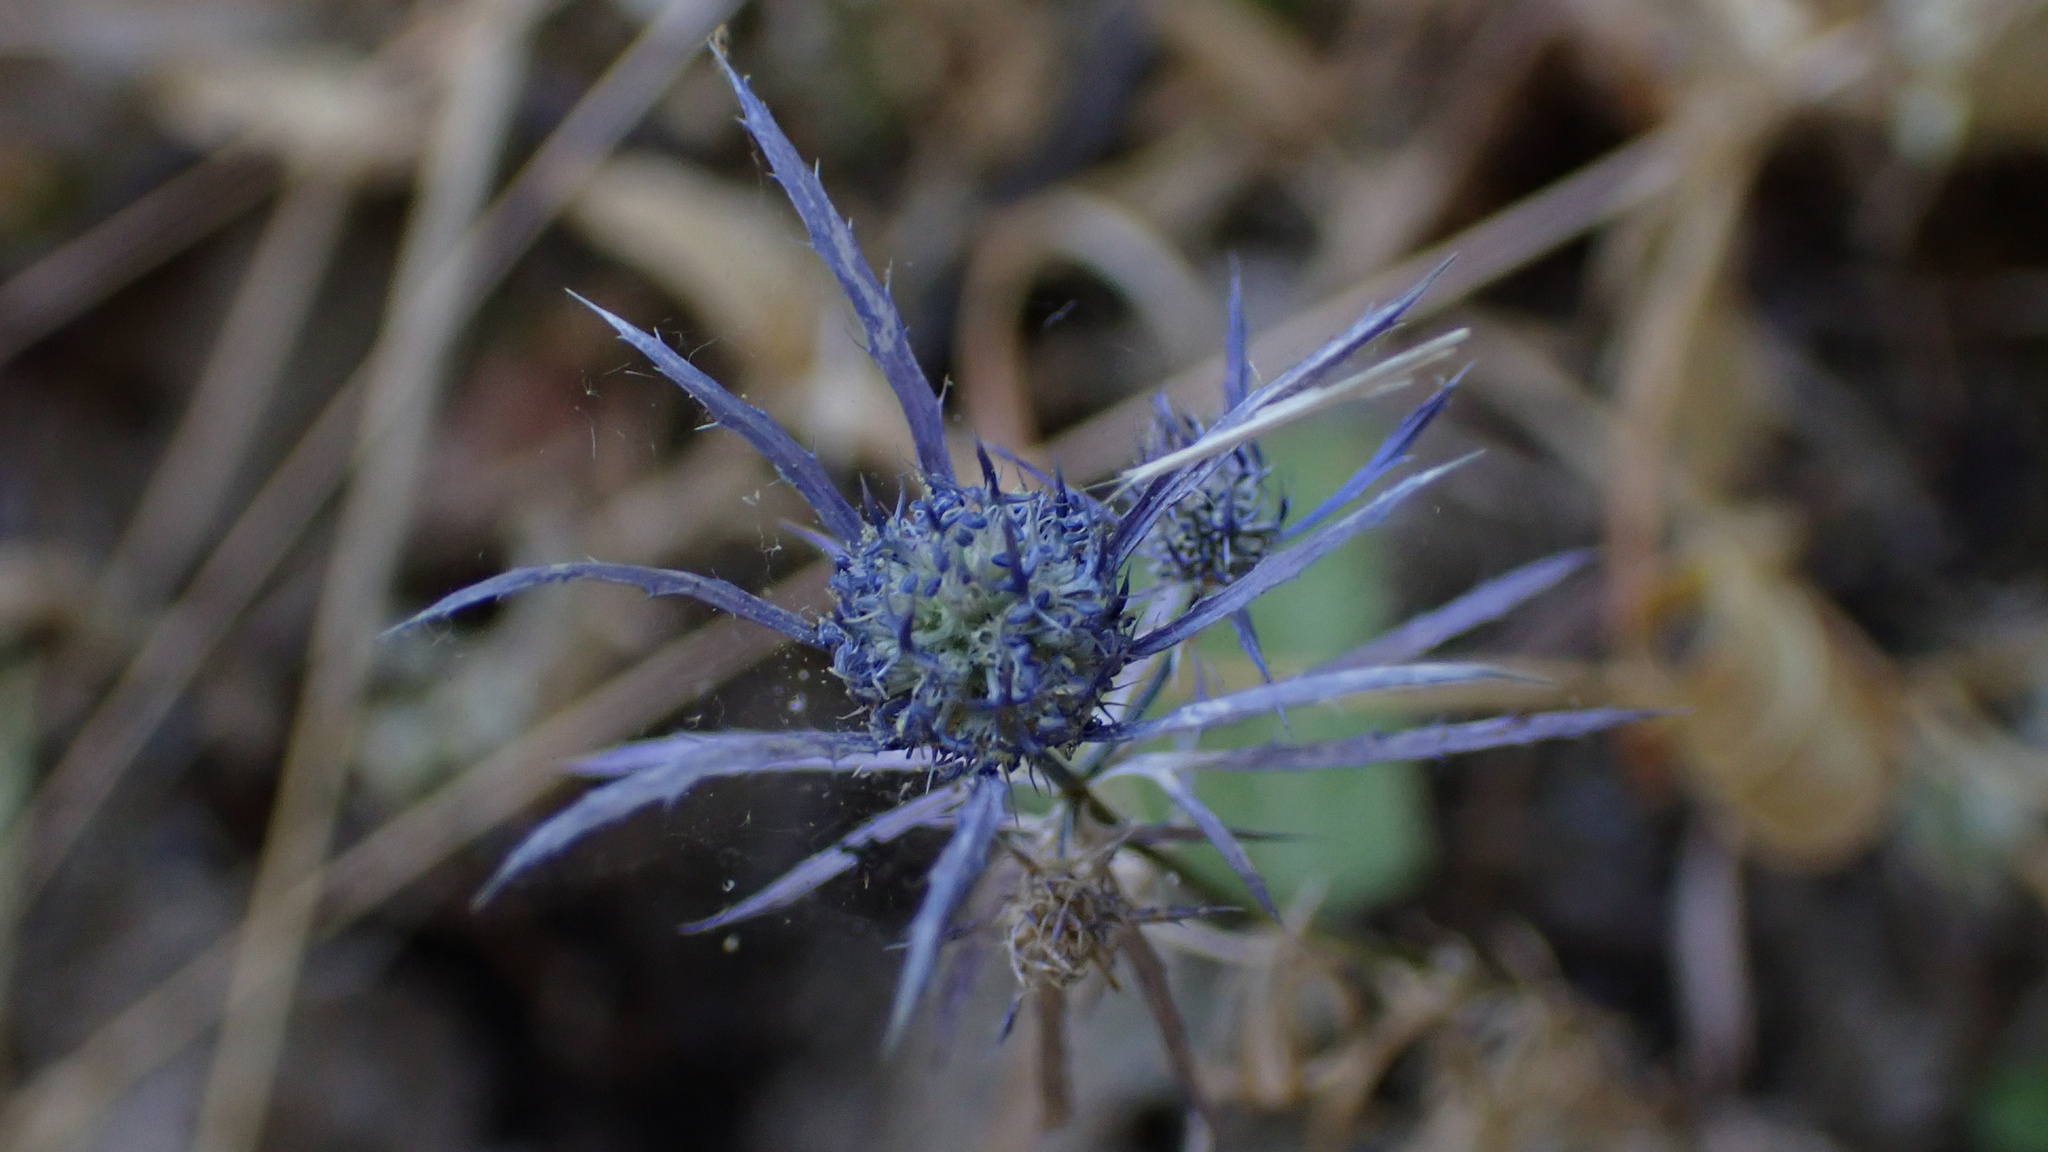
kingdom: Plantae
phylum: Tracheophyta
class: Magnoliopsida
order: Apiales
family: Apiaceae
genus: Eryngium
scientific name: Eryngium tenue
